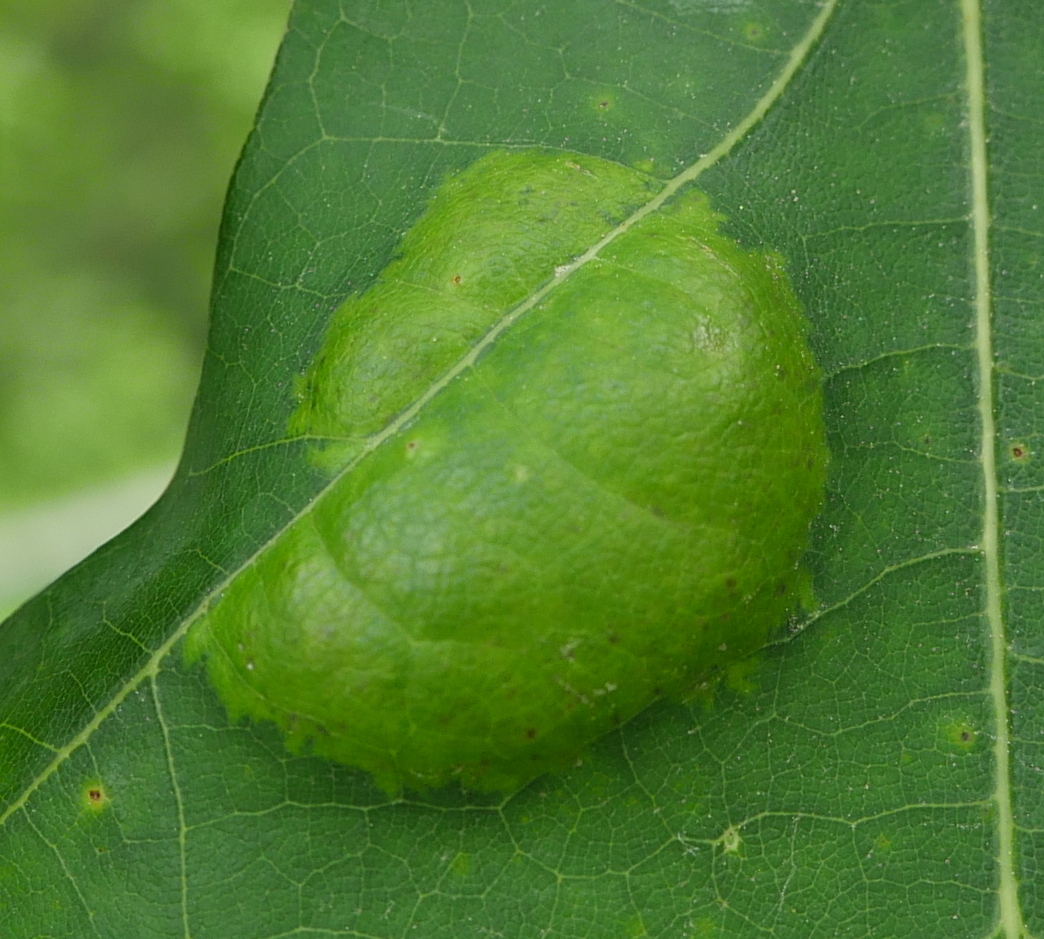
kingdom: Fungi
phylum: Ascomycota
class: Taphrinomycetes
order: Taphrinales
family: Taphrinaceae
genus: Taphrina
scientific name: Taphrina caerulescens
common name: Oak leaf blister
